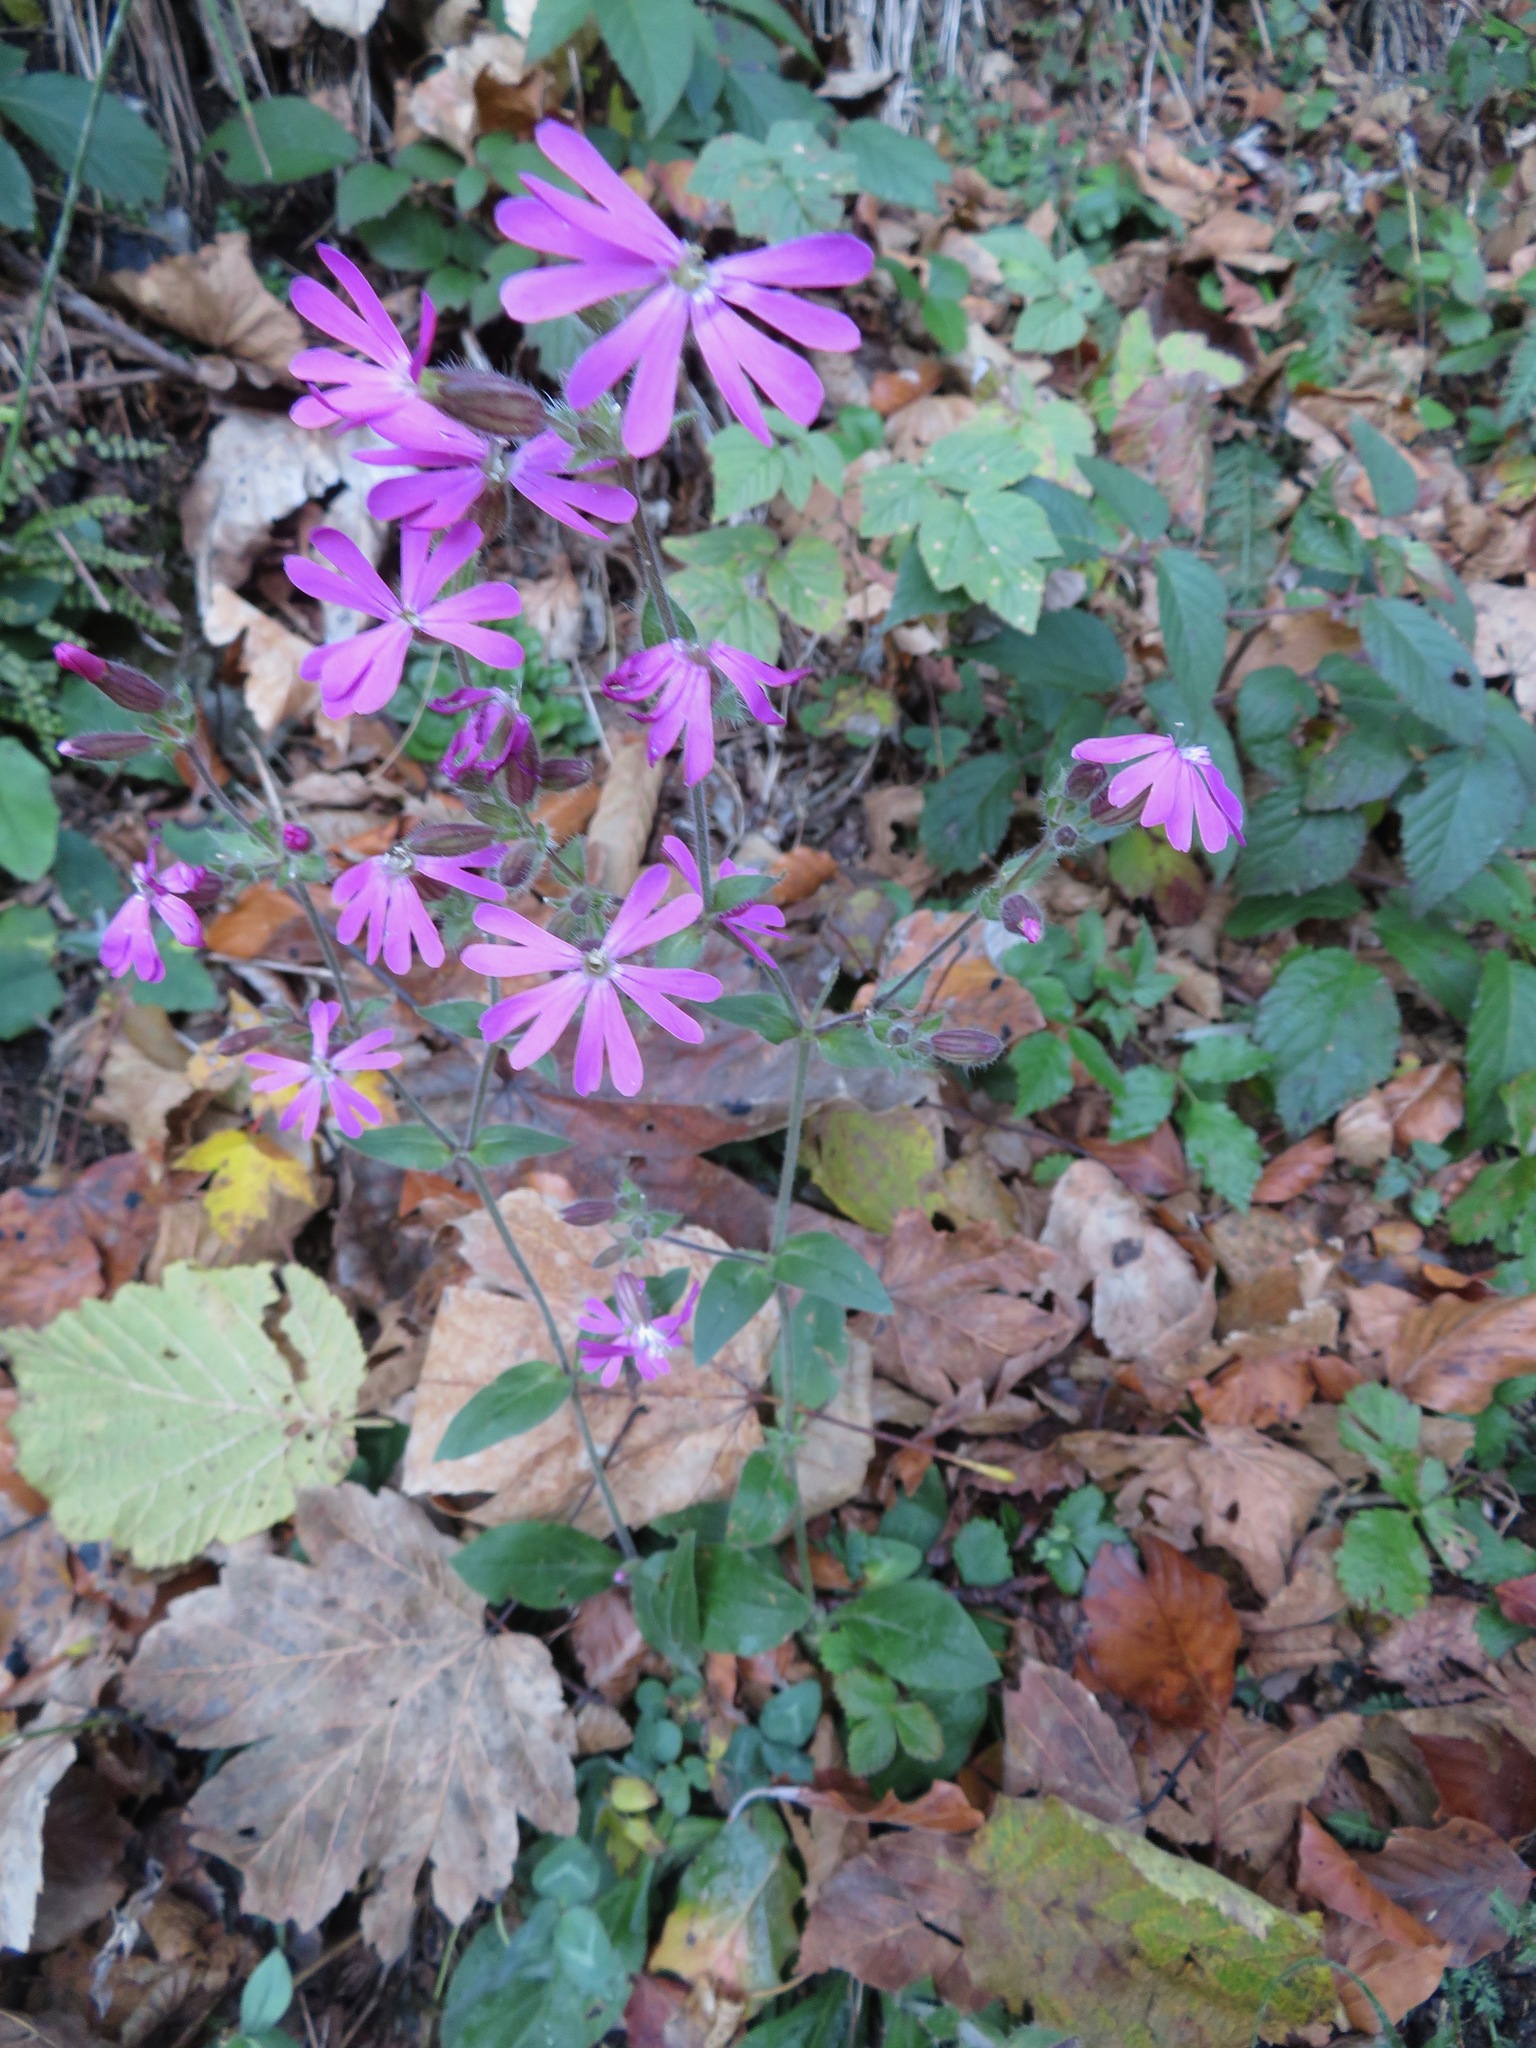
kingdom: Plantae
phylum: Tracheophyta
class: Magnoliopsida
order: Caryophyllales
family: Caryophyllaceae
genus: Silene
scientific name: Silene dioica
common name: Red campion
